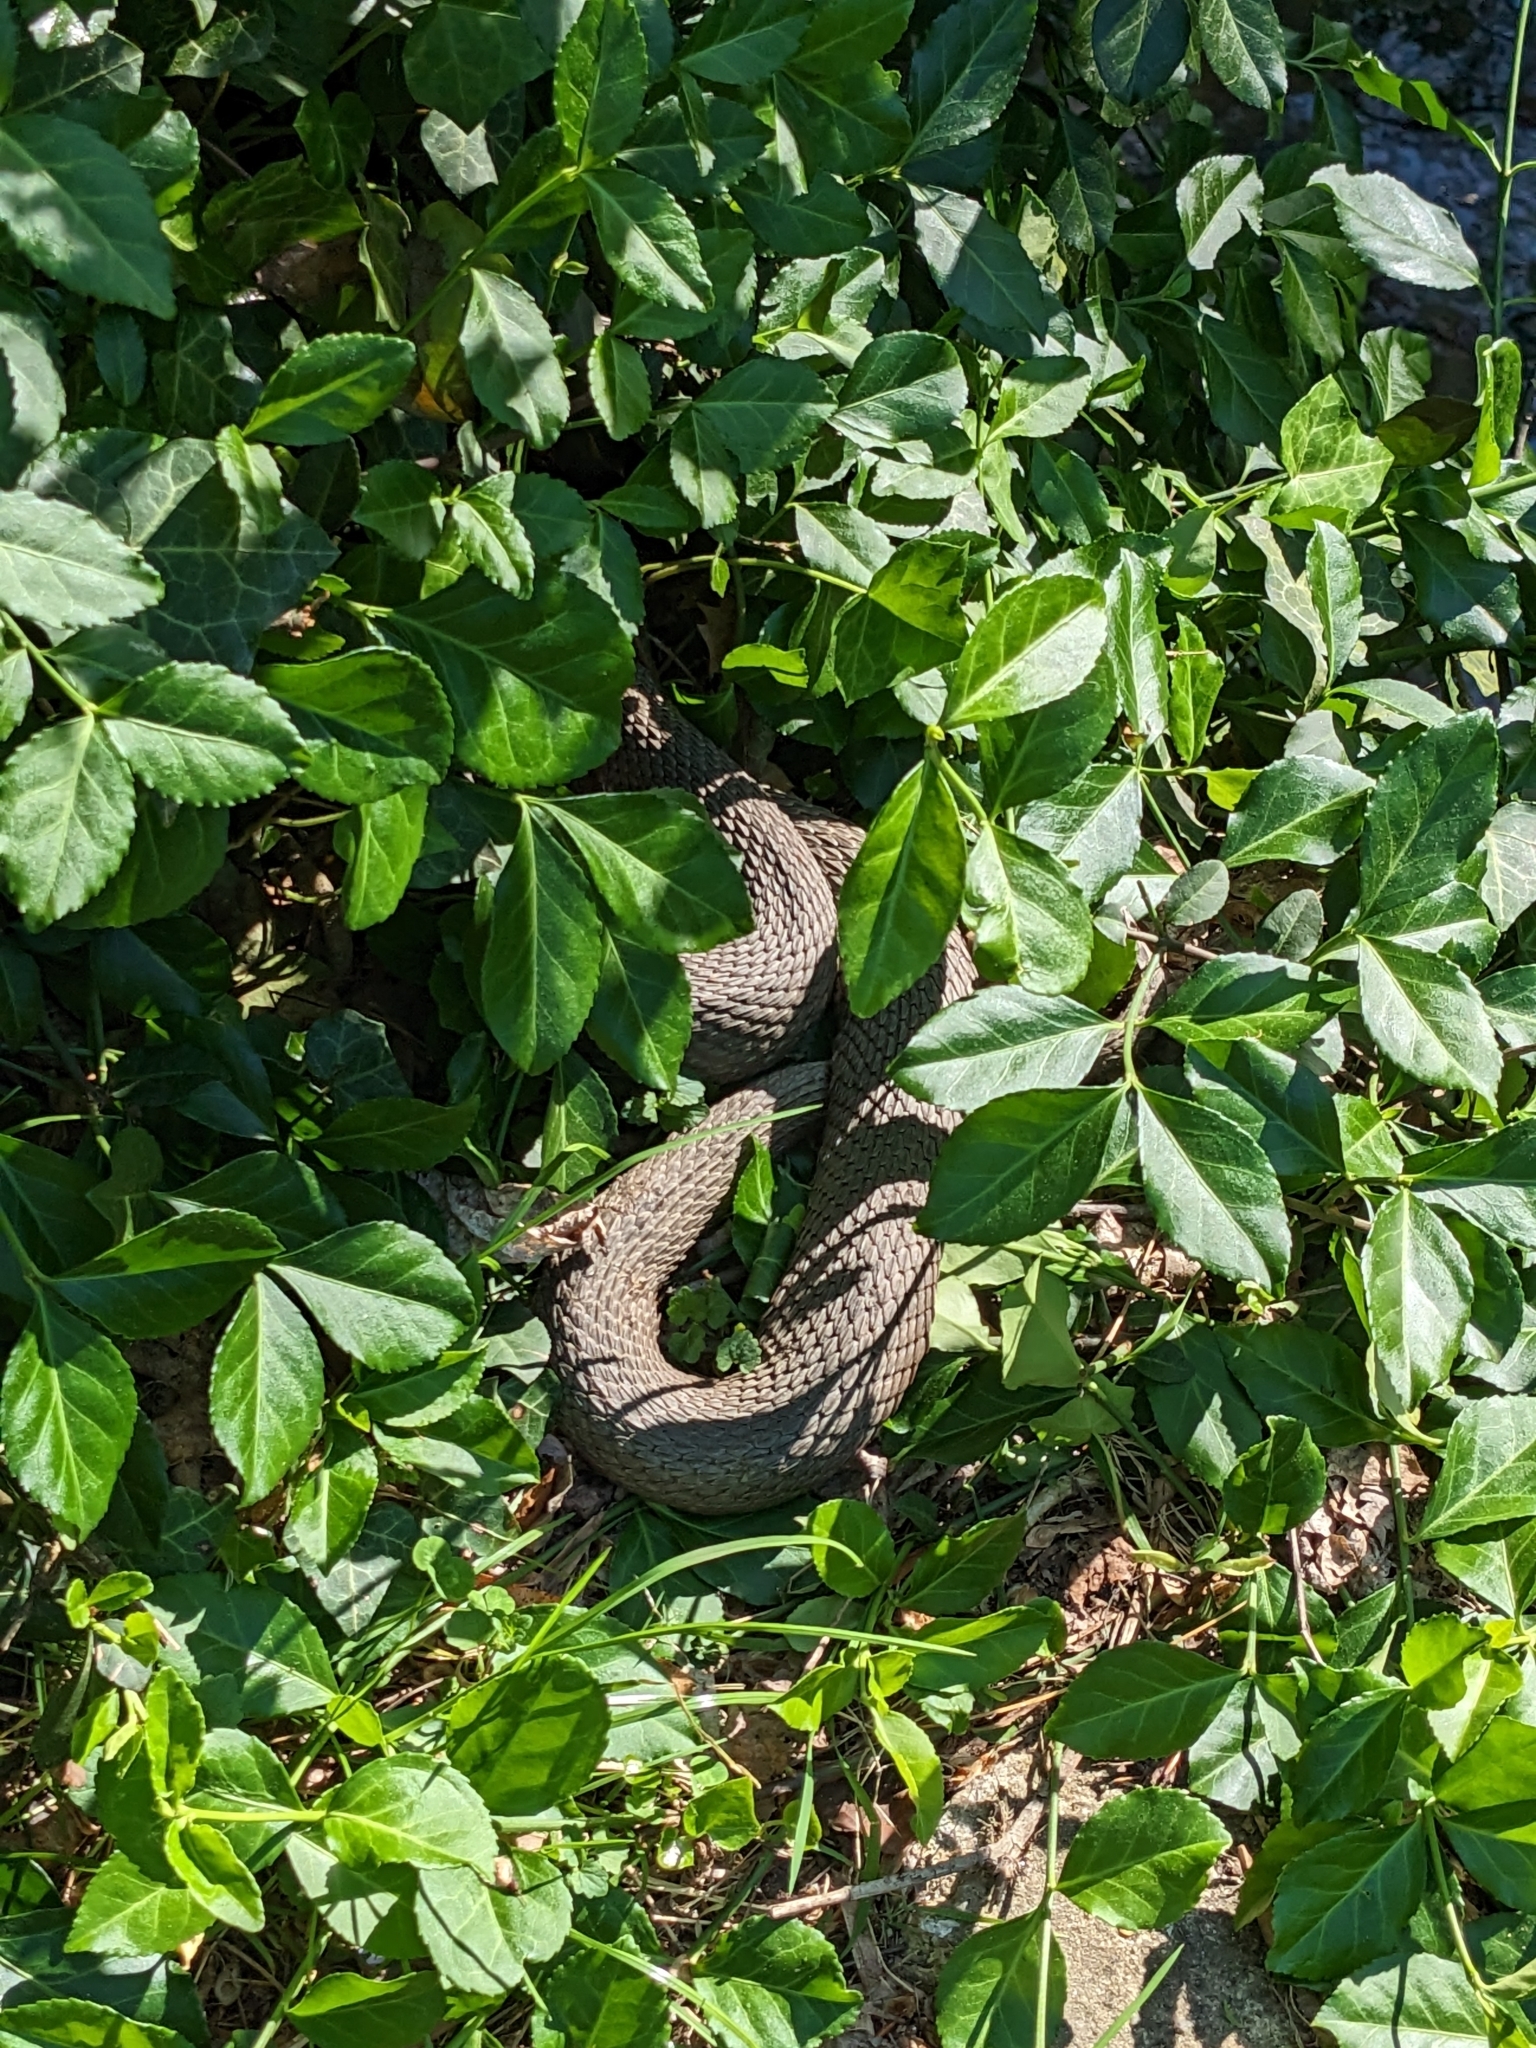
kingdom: Animalia
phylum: Chordata
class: Squamata
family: Colubridae
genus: Nerodia
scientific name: Nerodia sipedon
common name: Northern water snake
